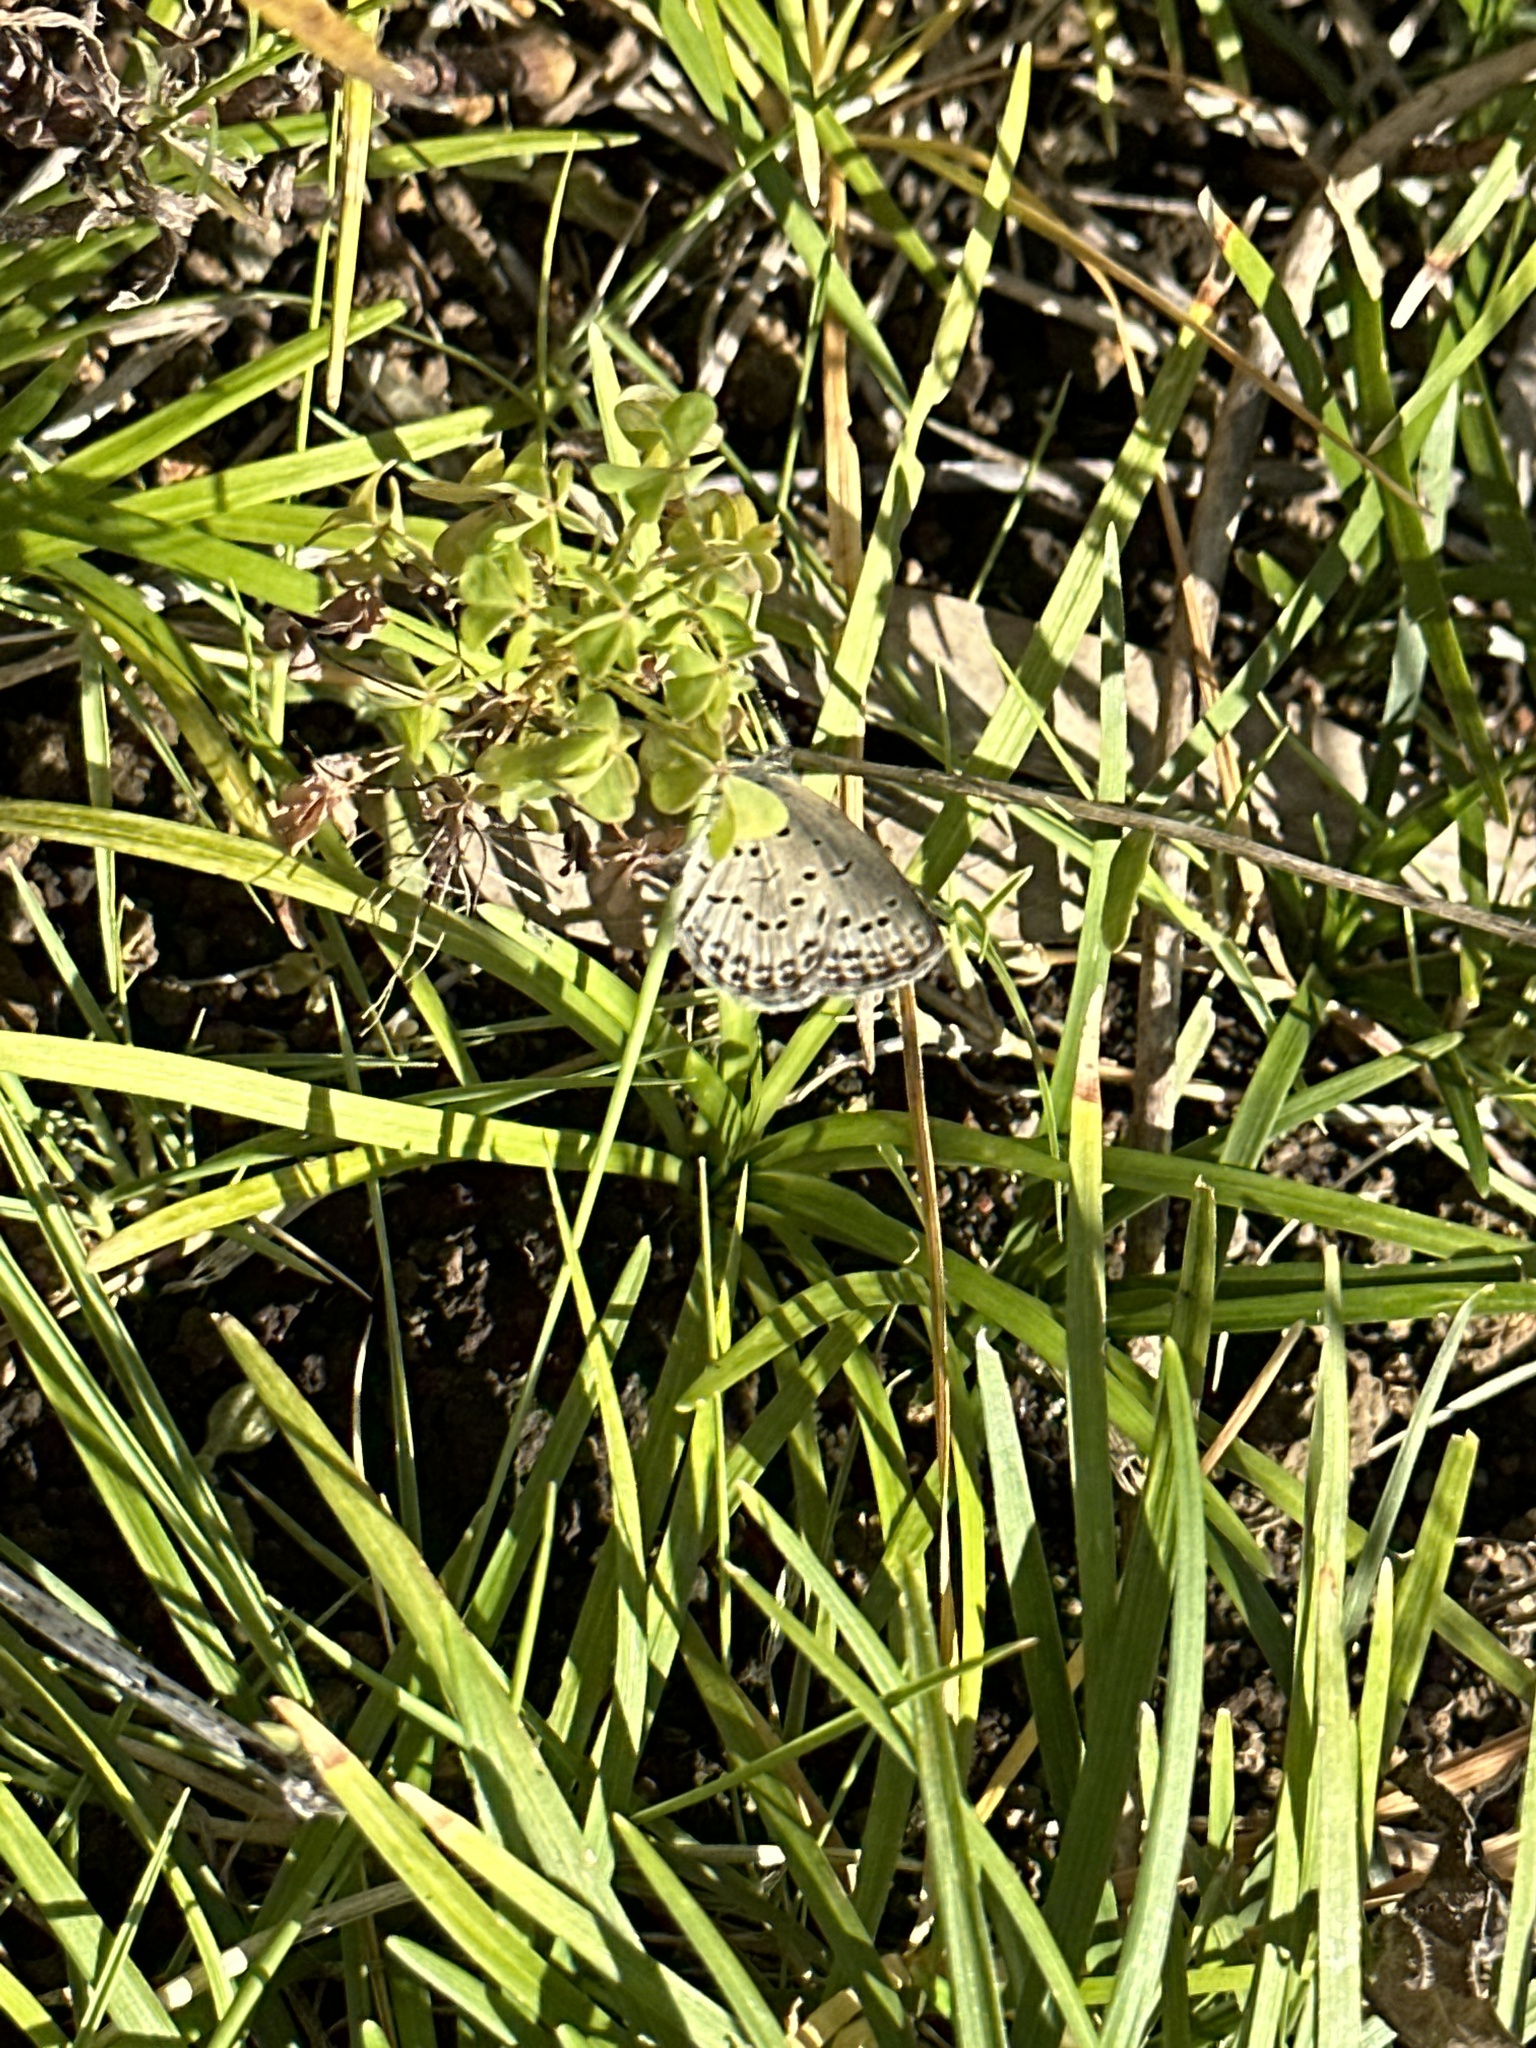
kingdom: Animalia
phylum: Arthropoda
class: Insecta
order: Lepidoptera
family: Lycaenidae
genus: Pseudozizeeria
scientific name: Pseudozizeeria maha
